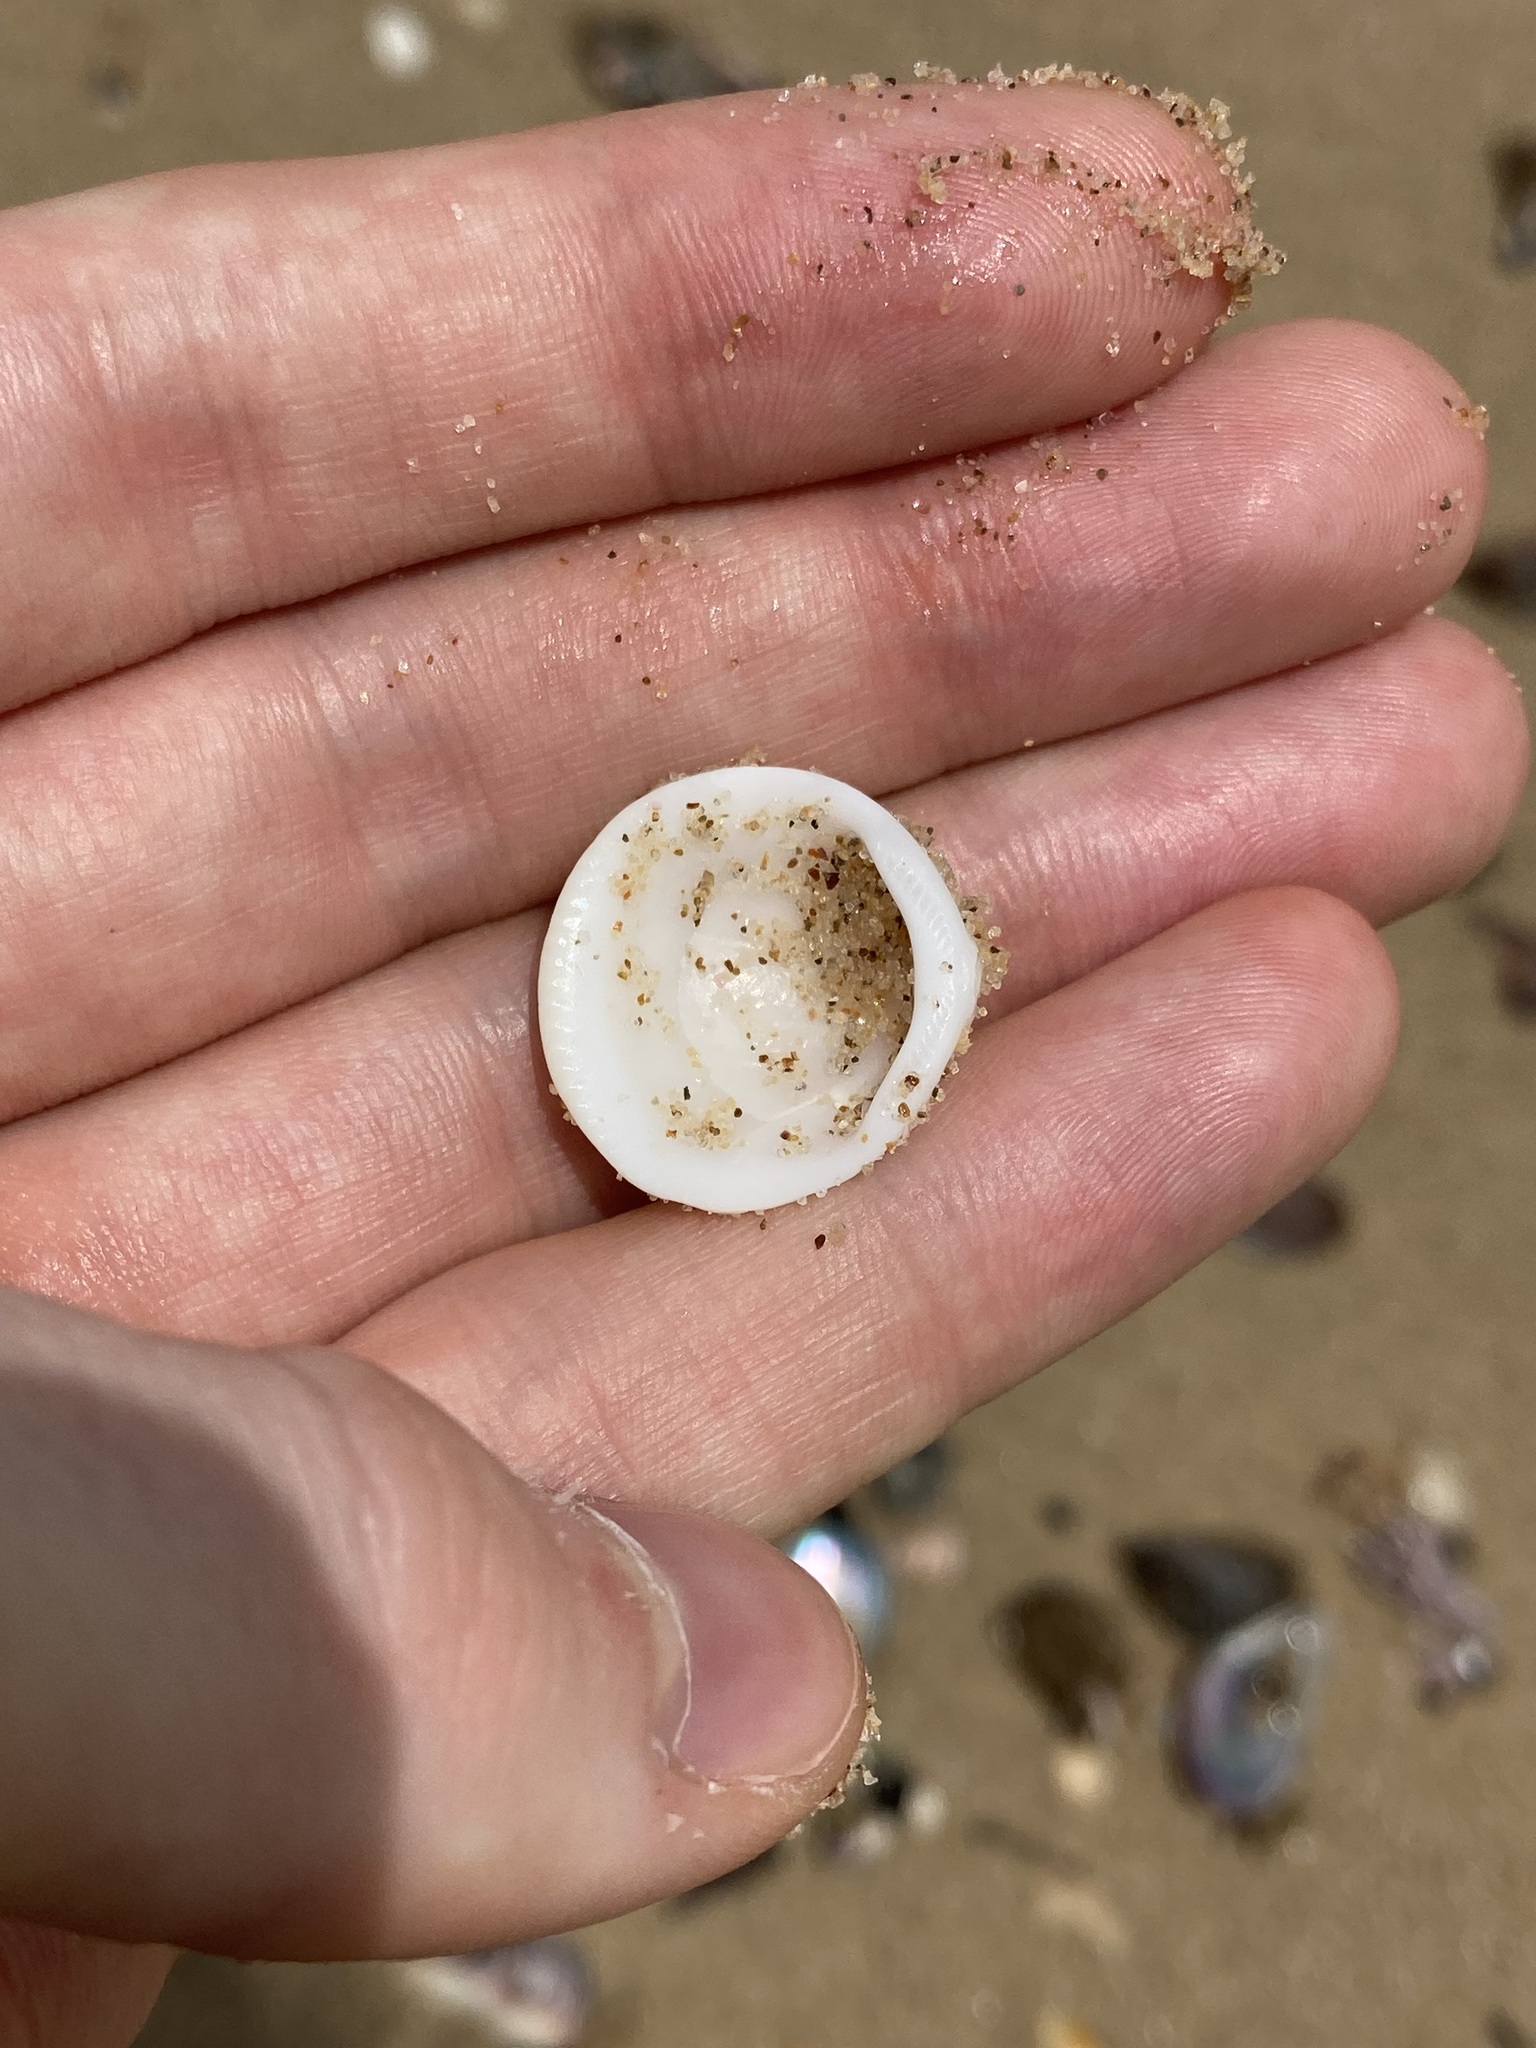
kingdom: Animalia
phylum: Mollusca
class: Bivalvia
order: Arcida
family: Glycymerididae
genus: Glycymeris
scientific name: Glycymeris holoserica
